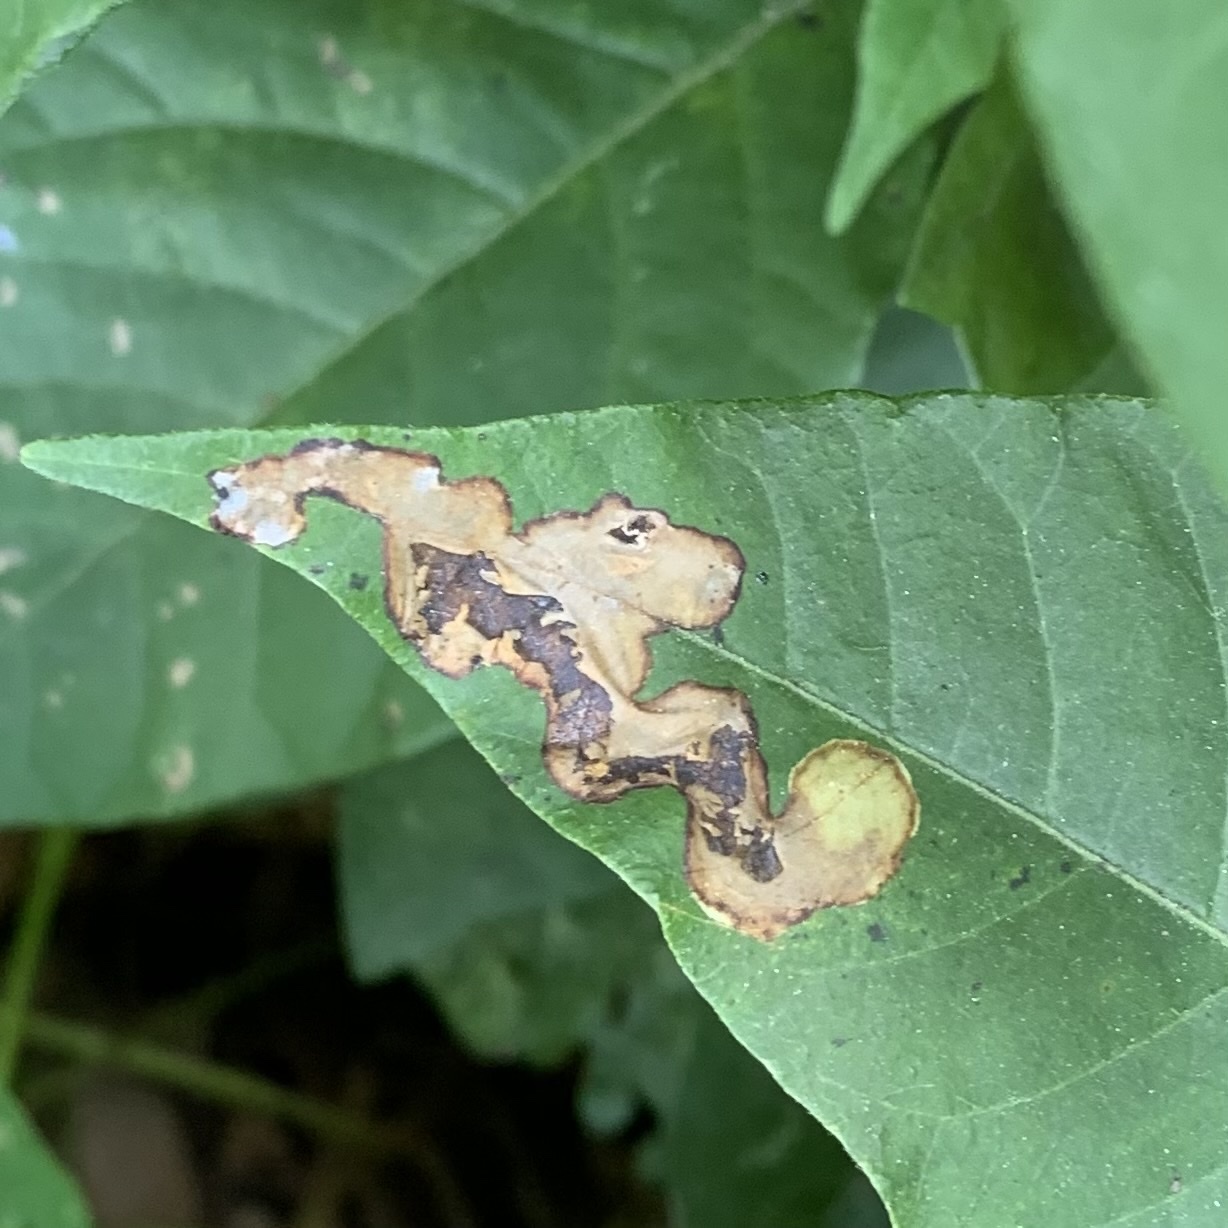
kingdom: Animalia
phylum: Arthropoda
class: Insecta
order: Lepidoptera
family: Gracillariidae
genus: Cameraria
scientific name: Cameraria guttifinitella
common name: Poison ivy leaf-miner moth
